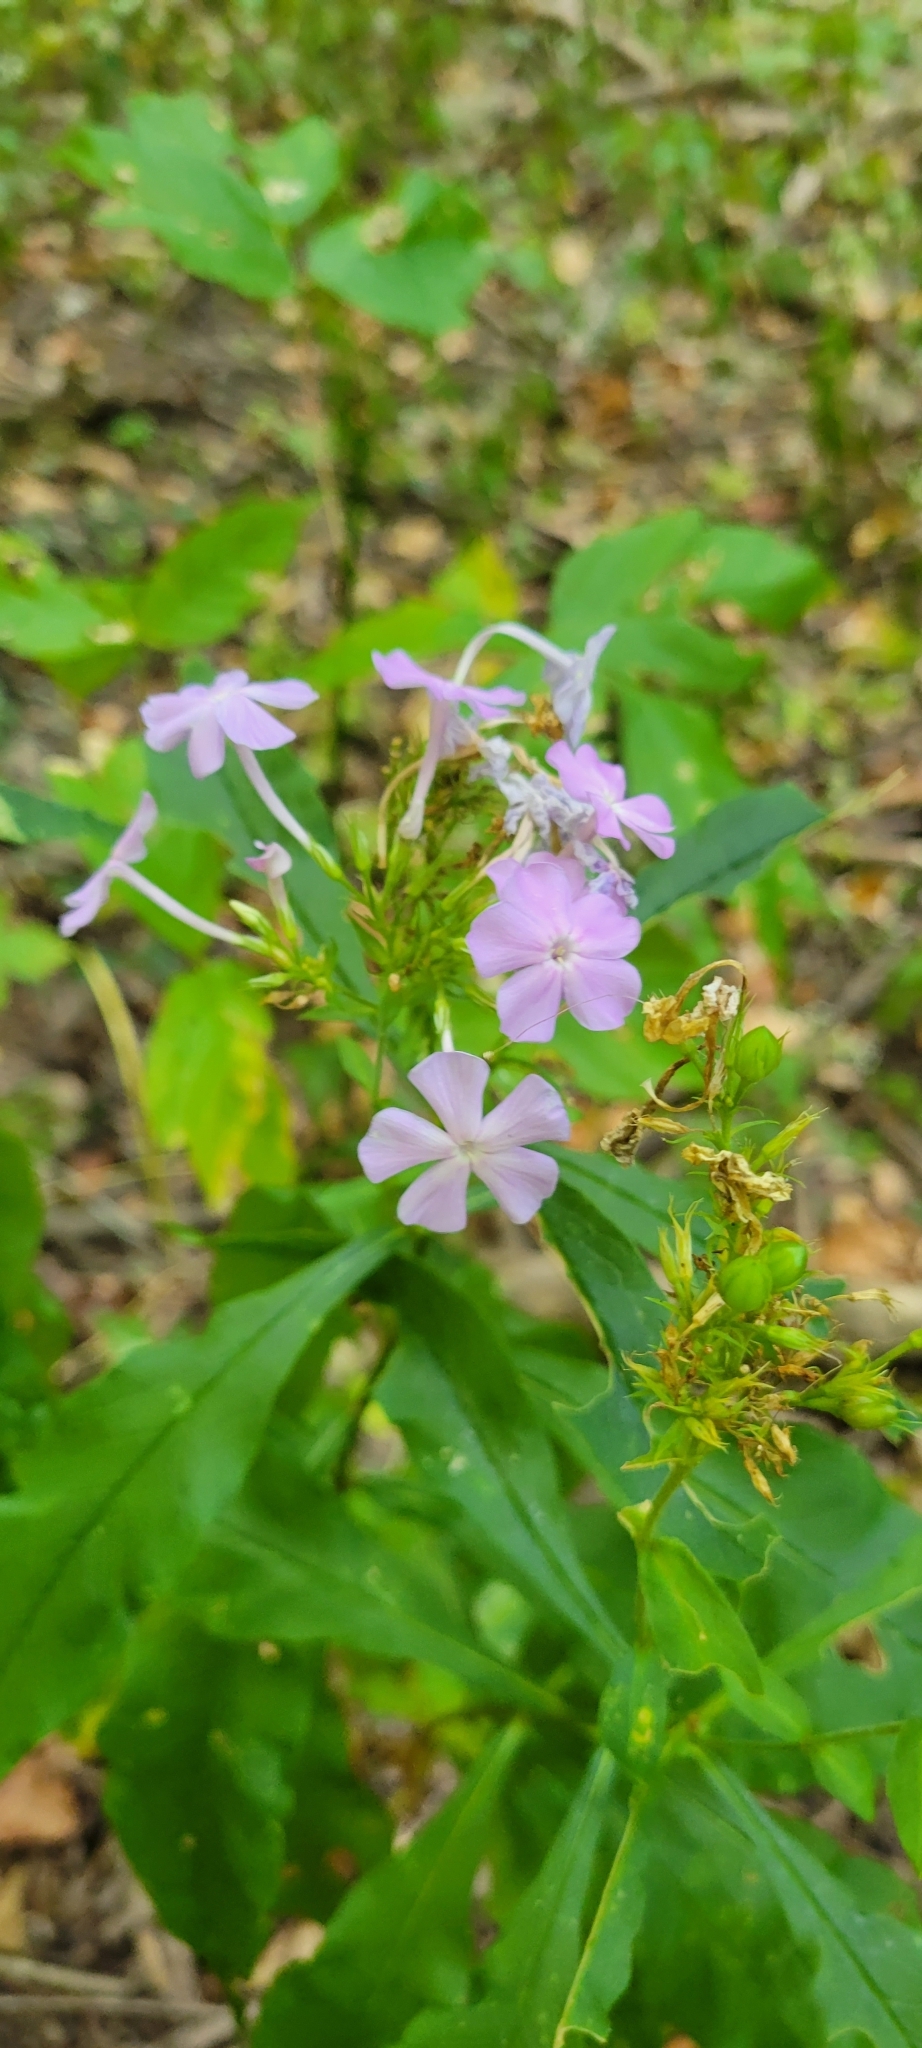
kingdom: Plantae
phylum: Tracheophyta
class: Magnoliopsida
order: Ericales
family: Polemoniaceae
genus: Phlox
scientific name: Phlox paniculata
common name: Fall phlox
